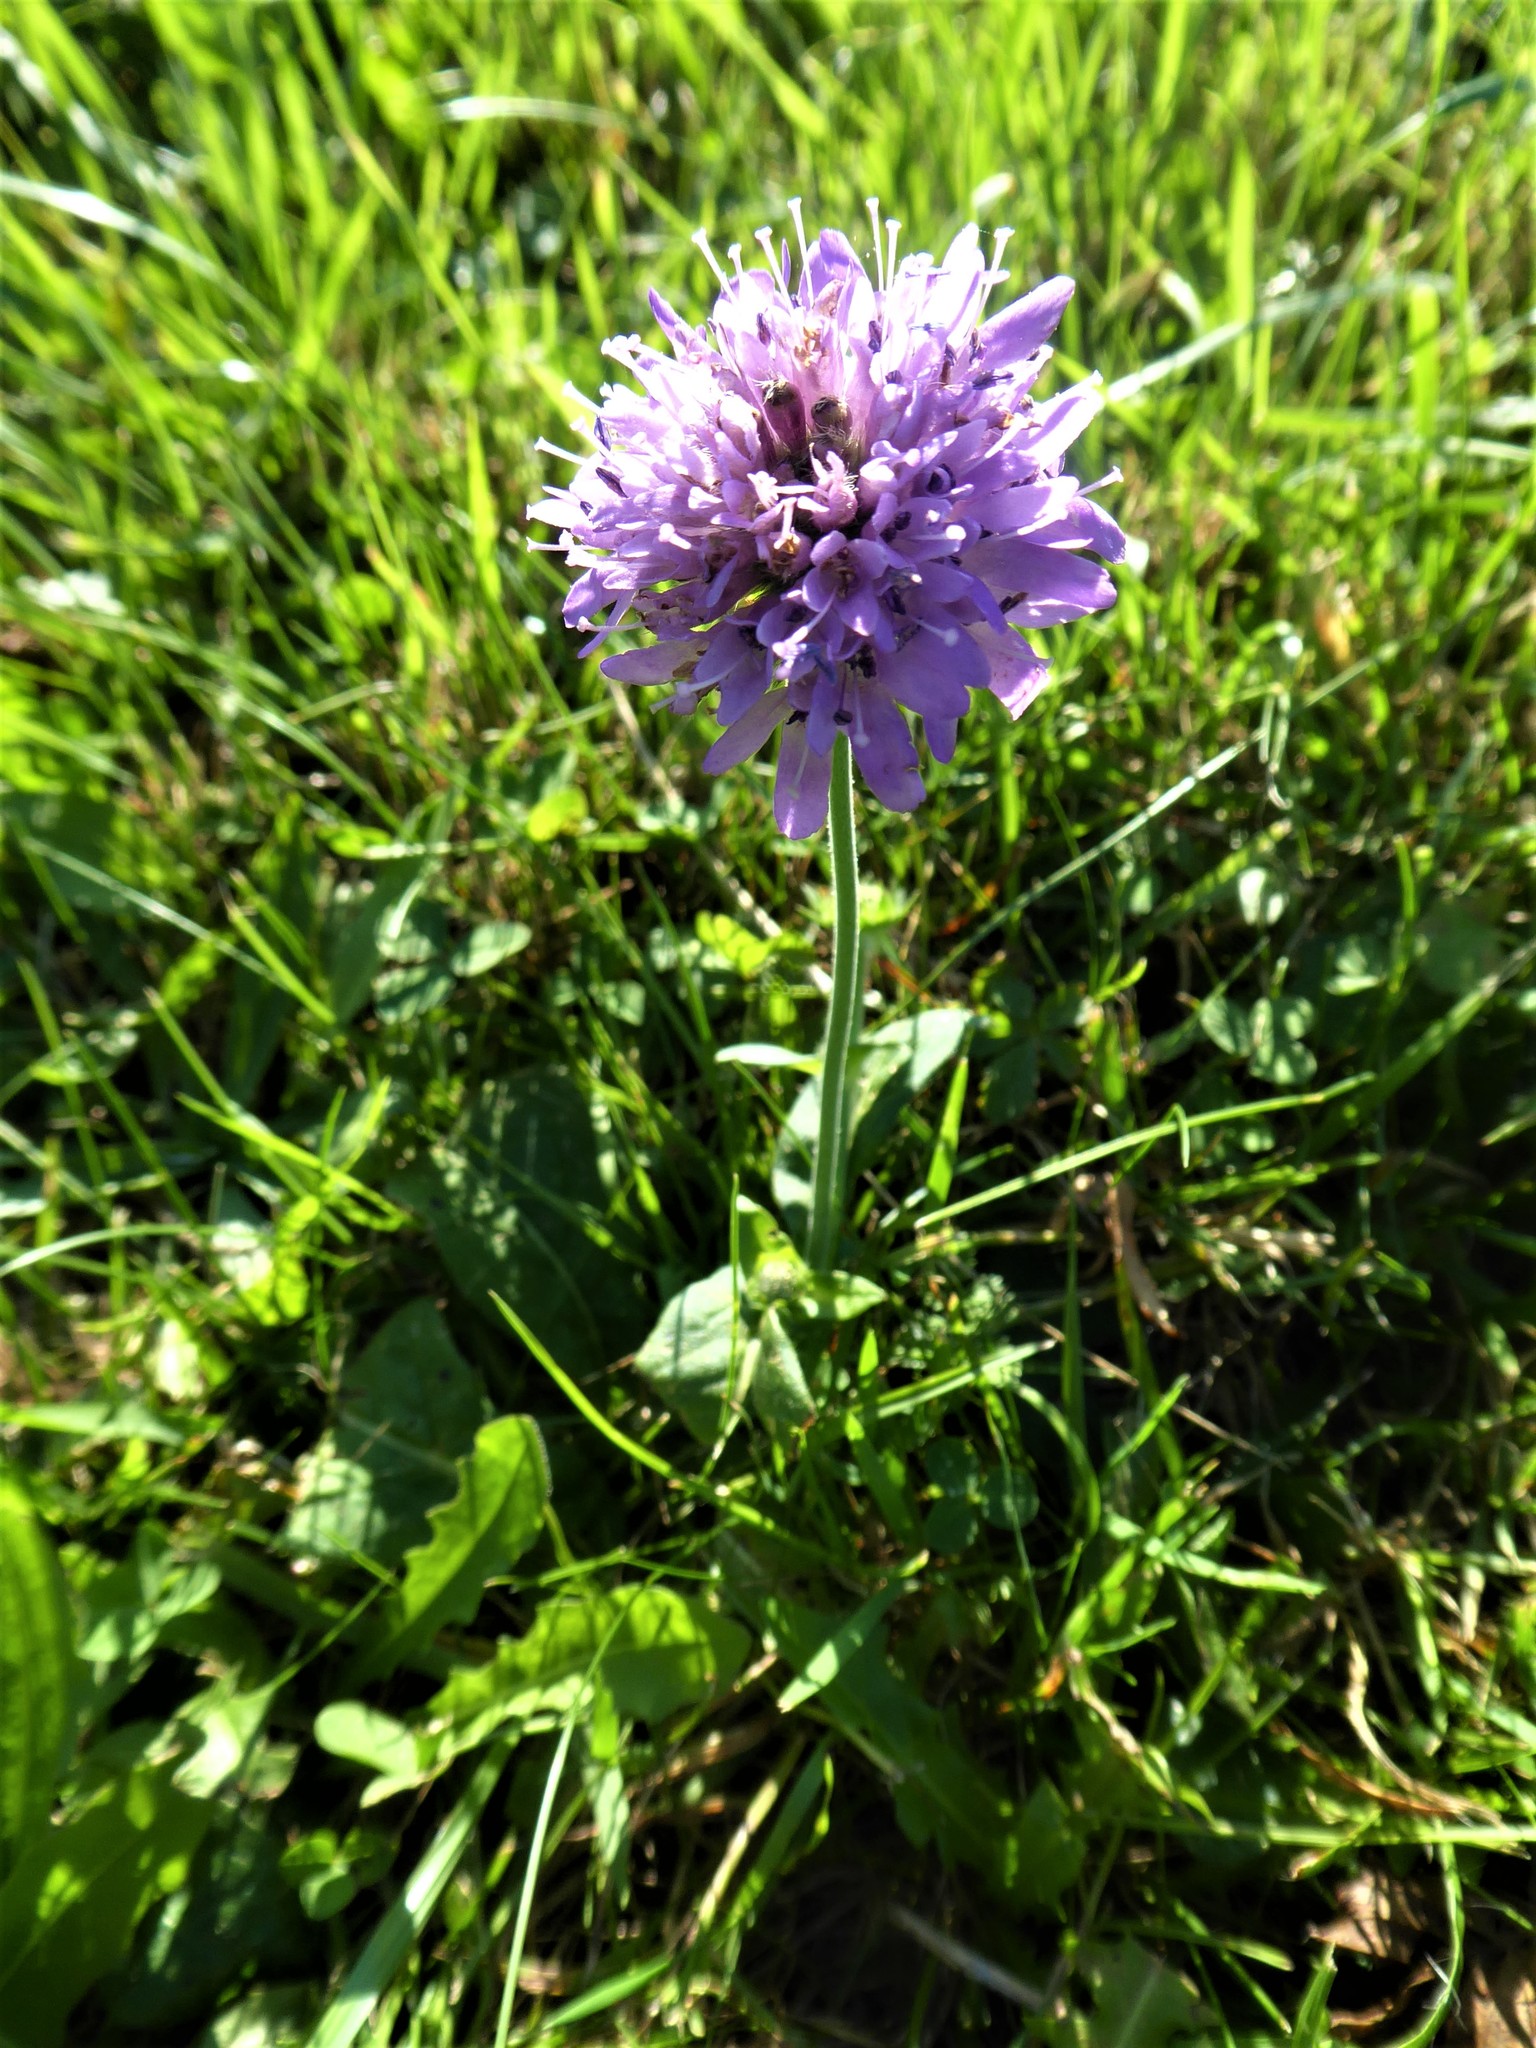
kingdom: Plantae
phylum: Tracheophyta
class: Magnoliopsida
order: Dipsacales
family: Caprifoliaceae
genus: Knautia
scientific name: Knautia arvensis
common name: Field scabiosa
